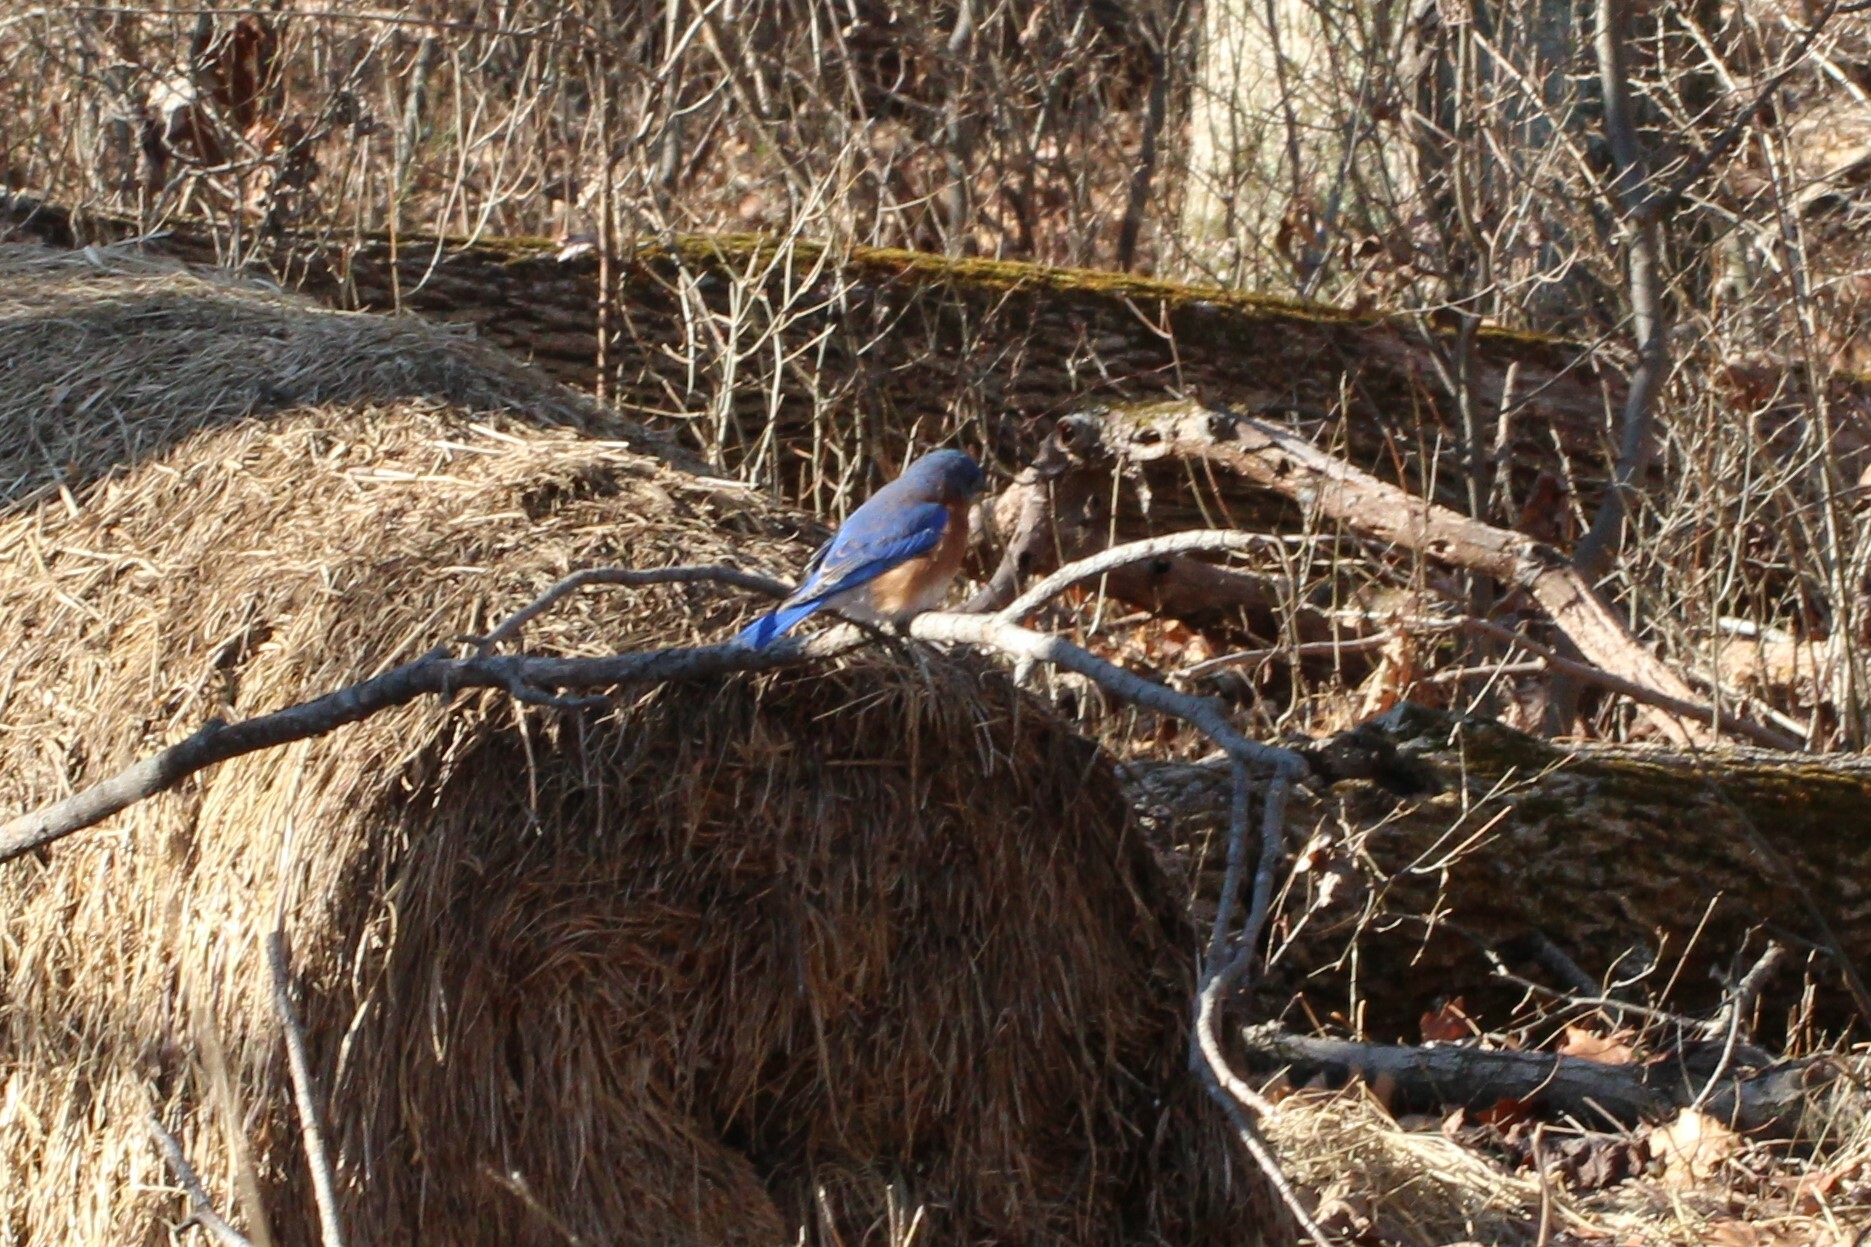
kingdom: Animalia
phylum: Chordata
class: Aves
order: Passeriformes
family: Turdidae
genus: Sialia
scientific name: Sialia sialis
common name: Eastern bluebird
